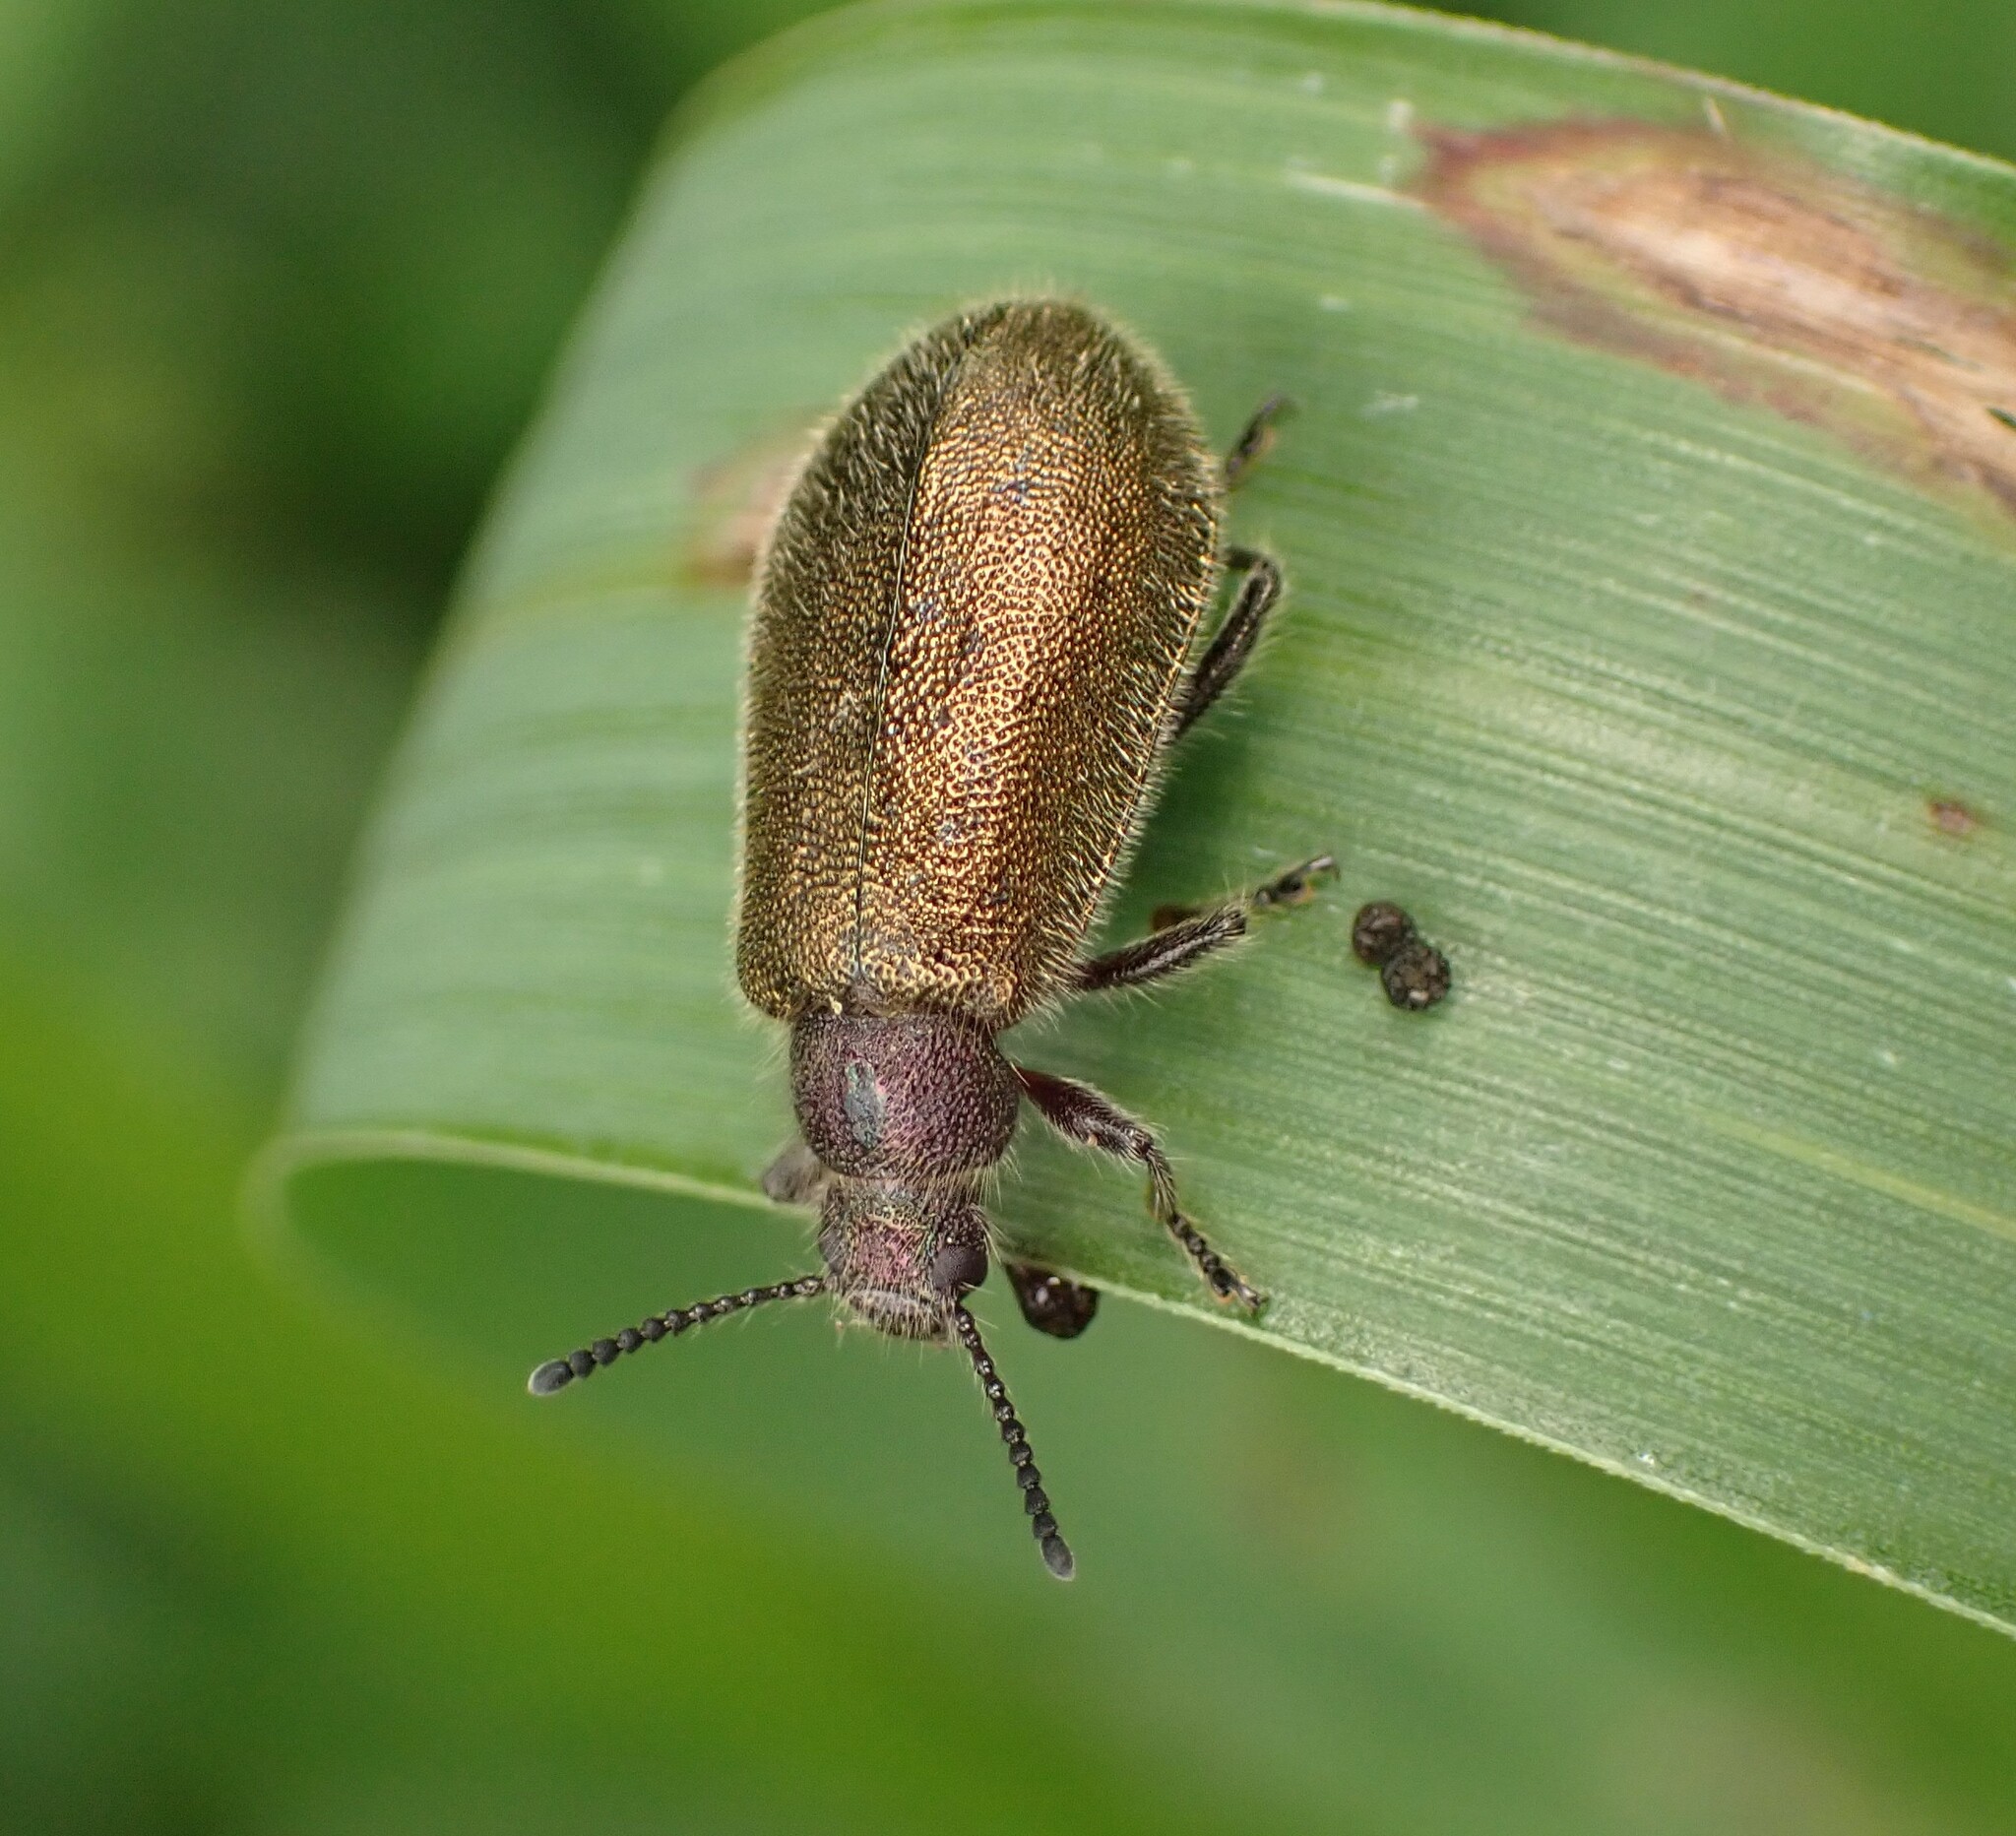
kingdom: Animalia
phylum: Arthropoda
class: Insecta
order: Coleoptera
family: Tenebrionidae
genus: Lagria
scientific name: Lagria villosa
